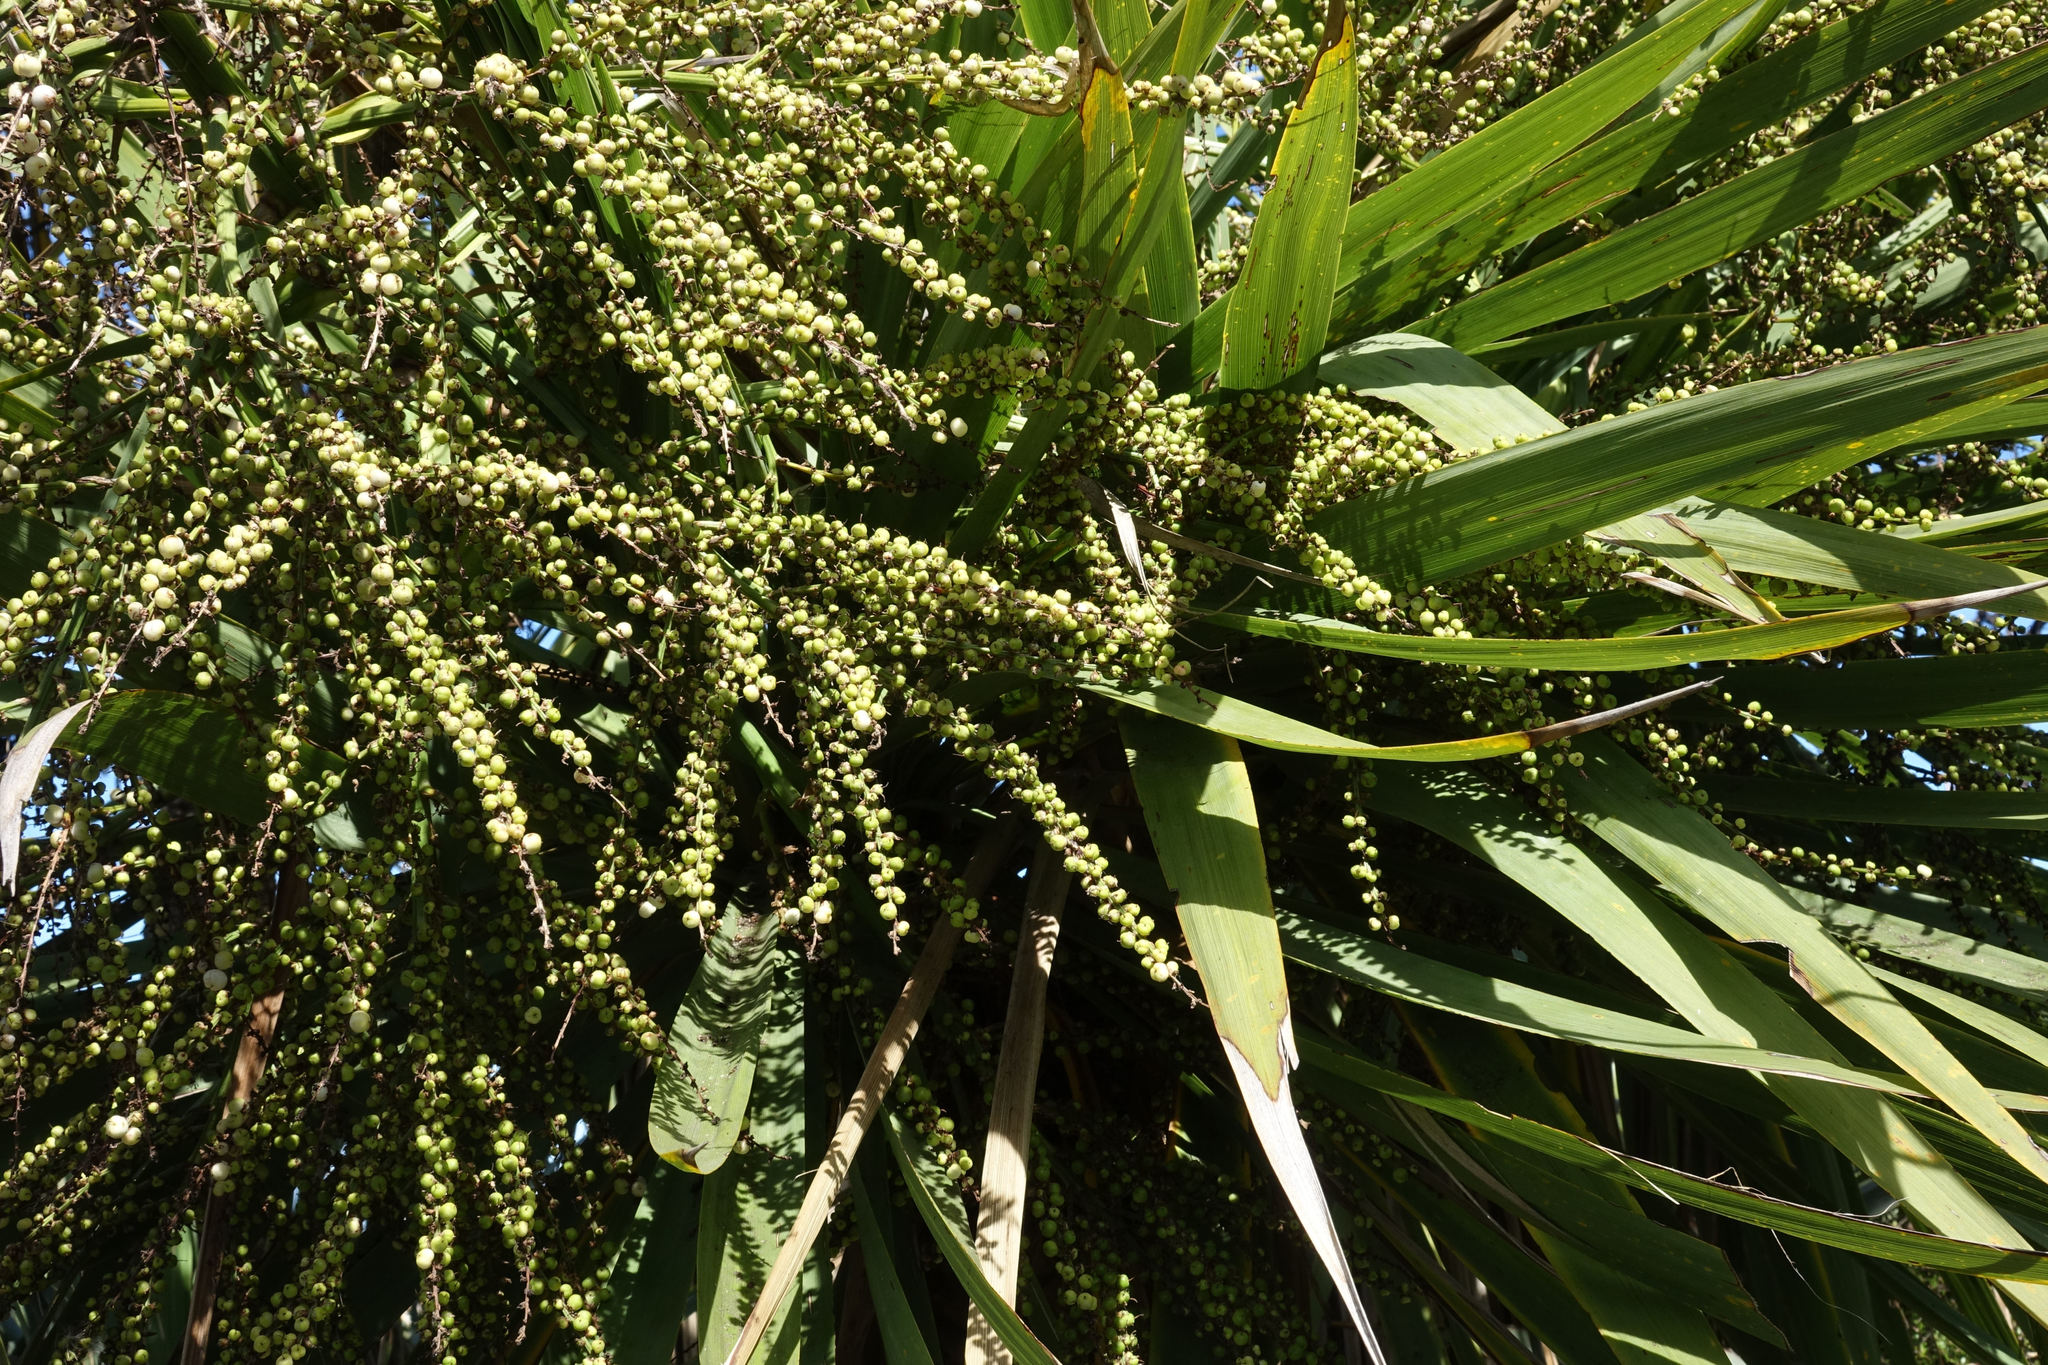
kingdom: Plantae
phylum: Tracheophyta
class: Liliopsida
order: Asparagales
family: Asparagaceae
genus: Cordyline
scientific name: Cordyline australis
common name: Cabbage-palm
